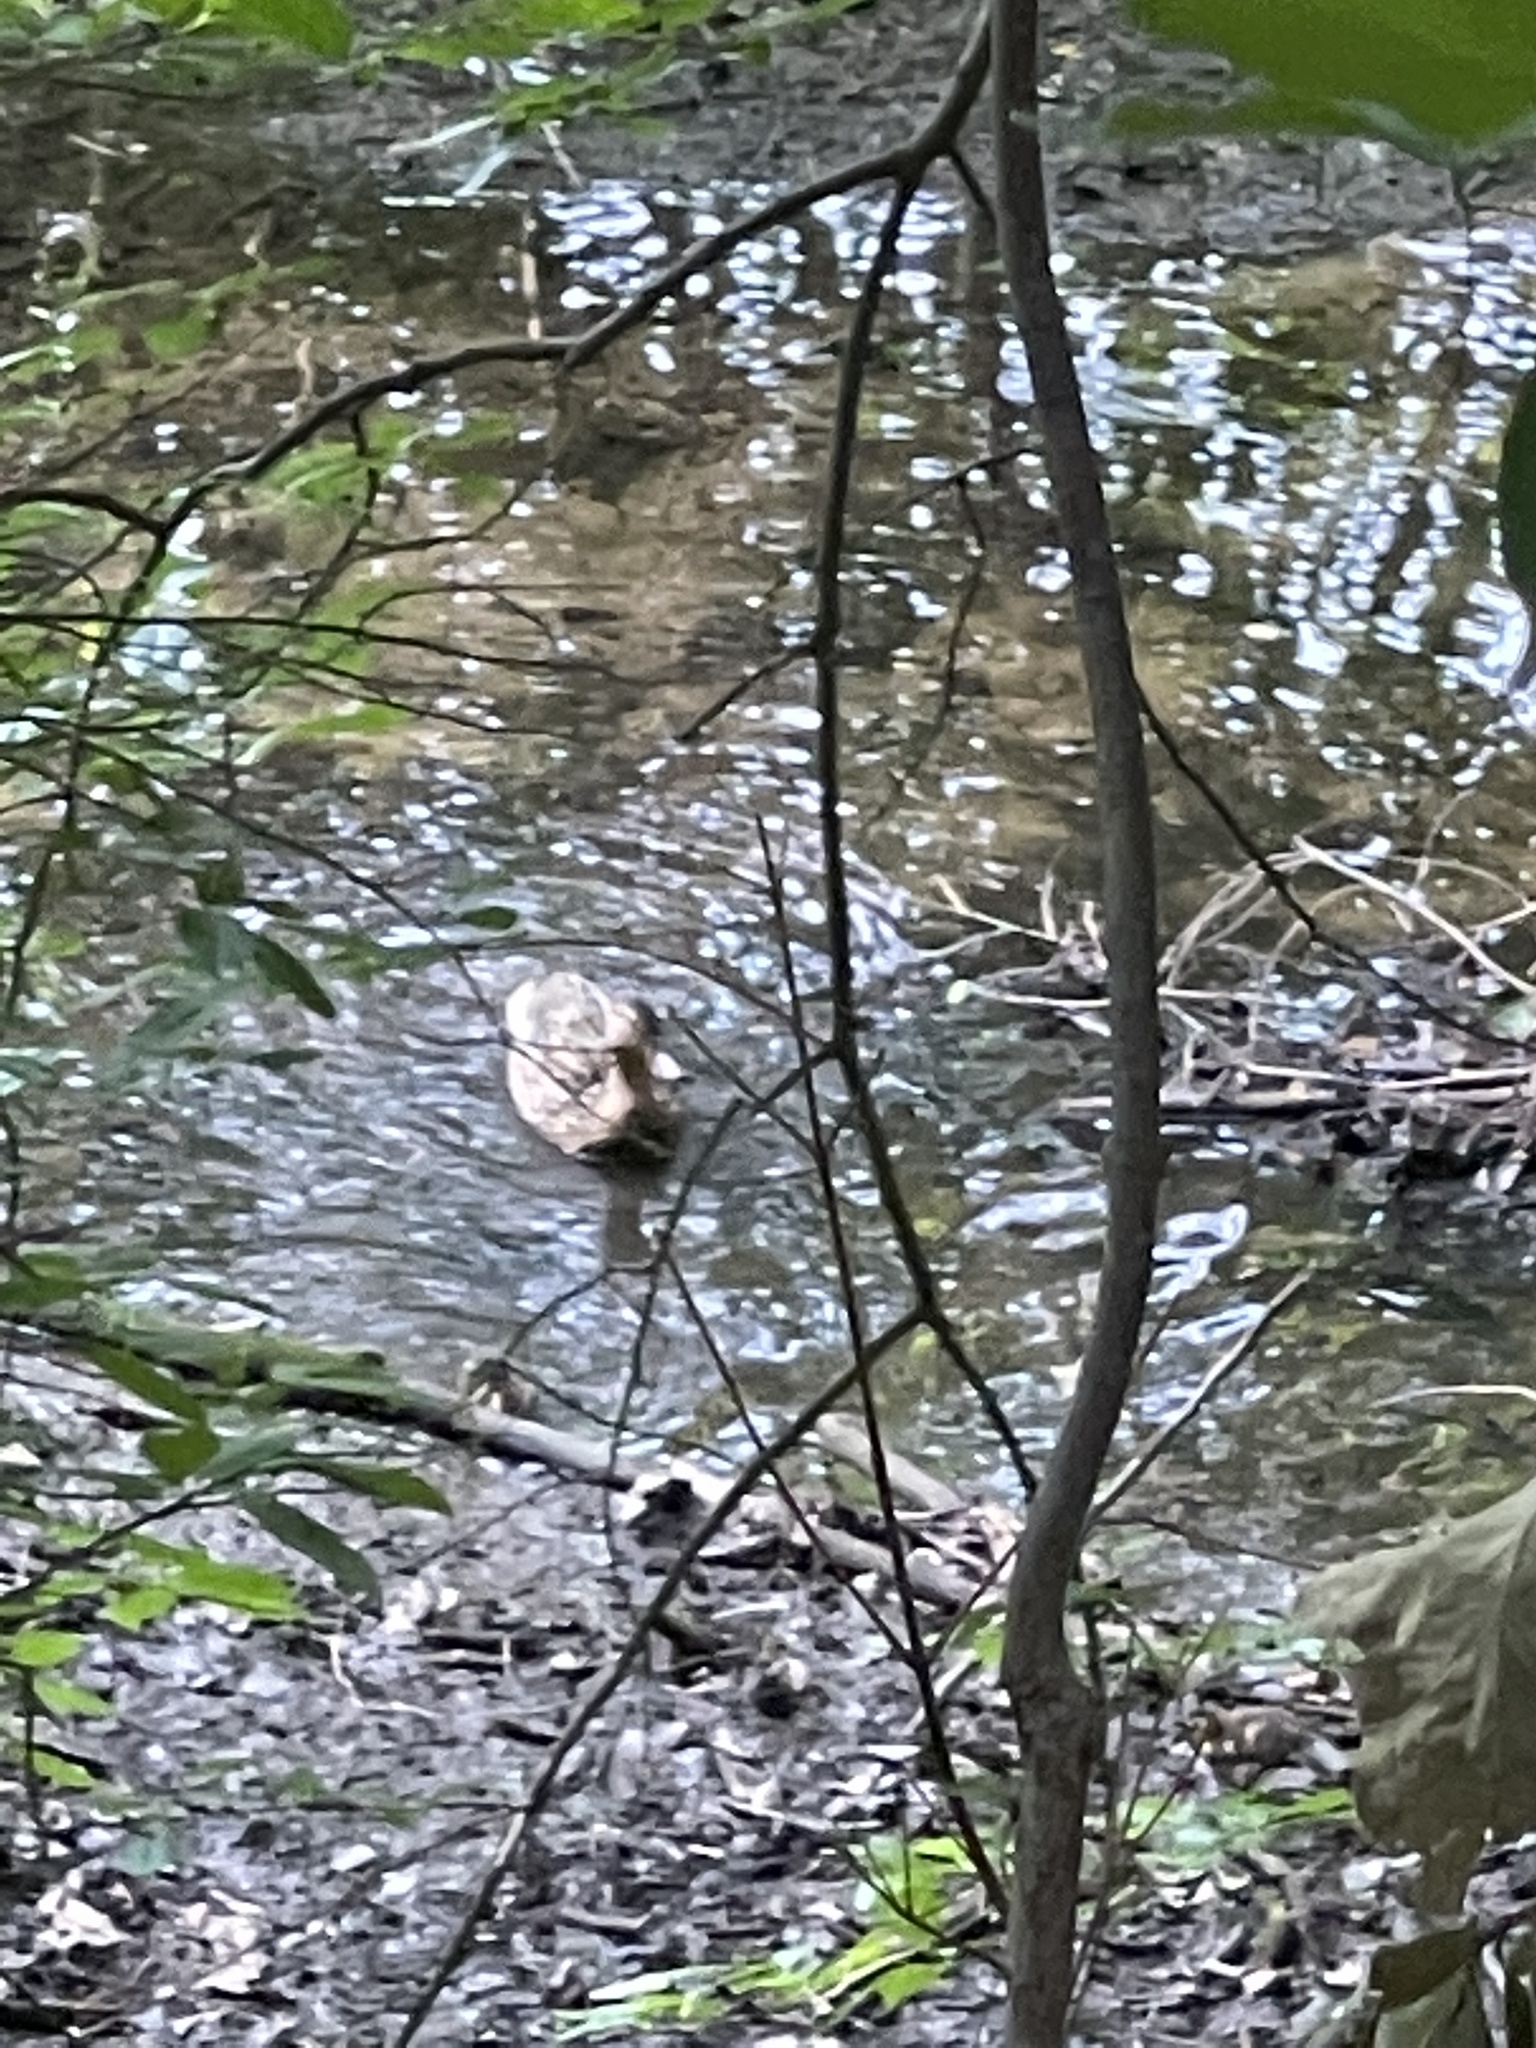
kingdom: Animalia
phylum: Chordata
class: Aves
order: Anseriformes
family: Anatidae
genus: Anas
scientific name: Anas platyrhynchos
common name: Mallard
